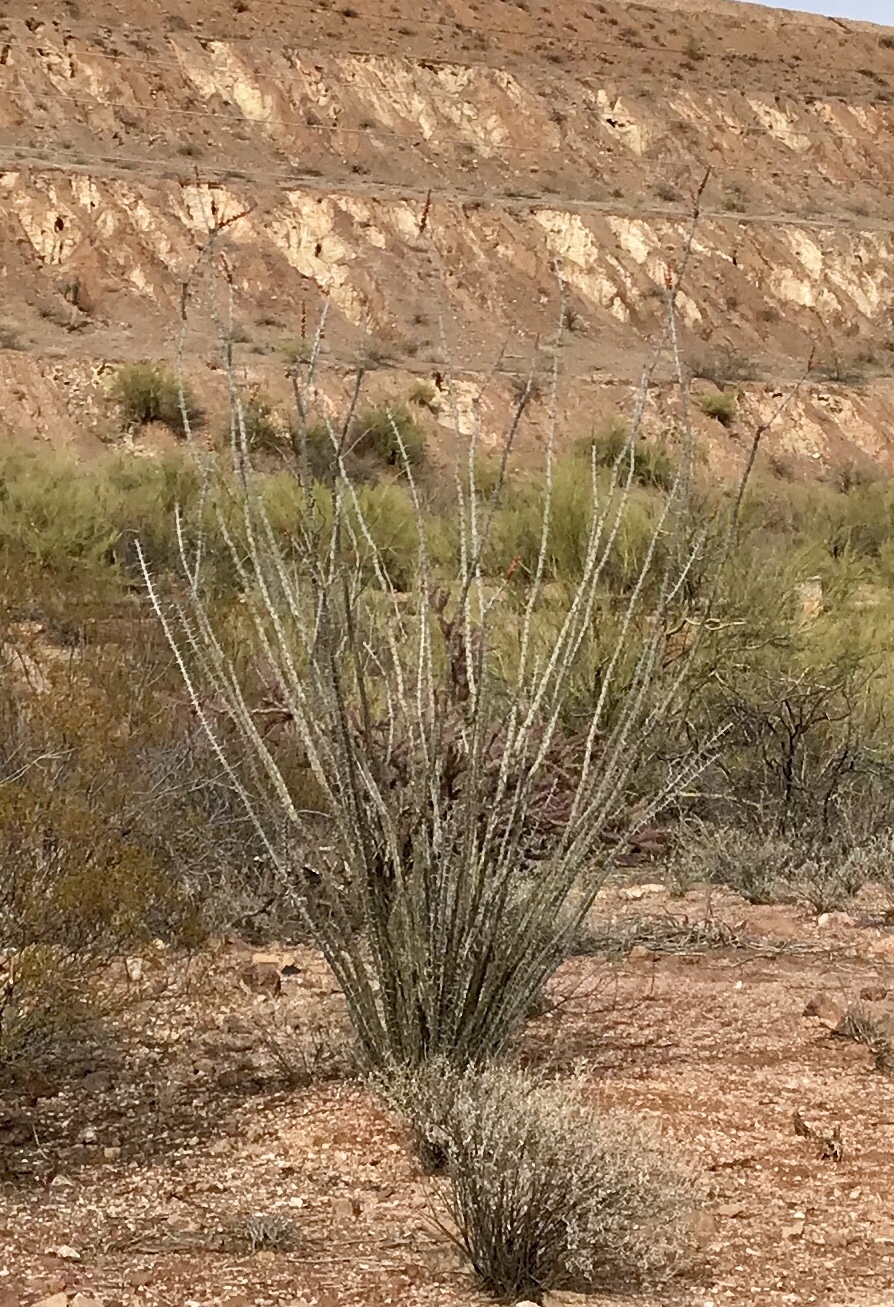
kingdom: Plantae
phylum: Tracheophyta
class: Magnoliopsida
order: Ericales
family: Fouquieriaceae
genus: Fouquieria
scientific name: Fouquieria splendens
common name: Vine-cactus
